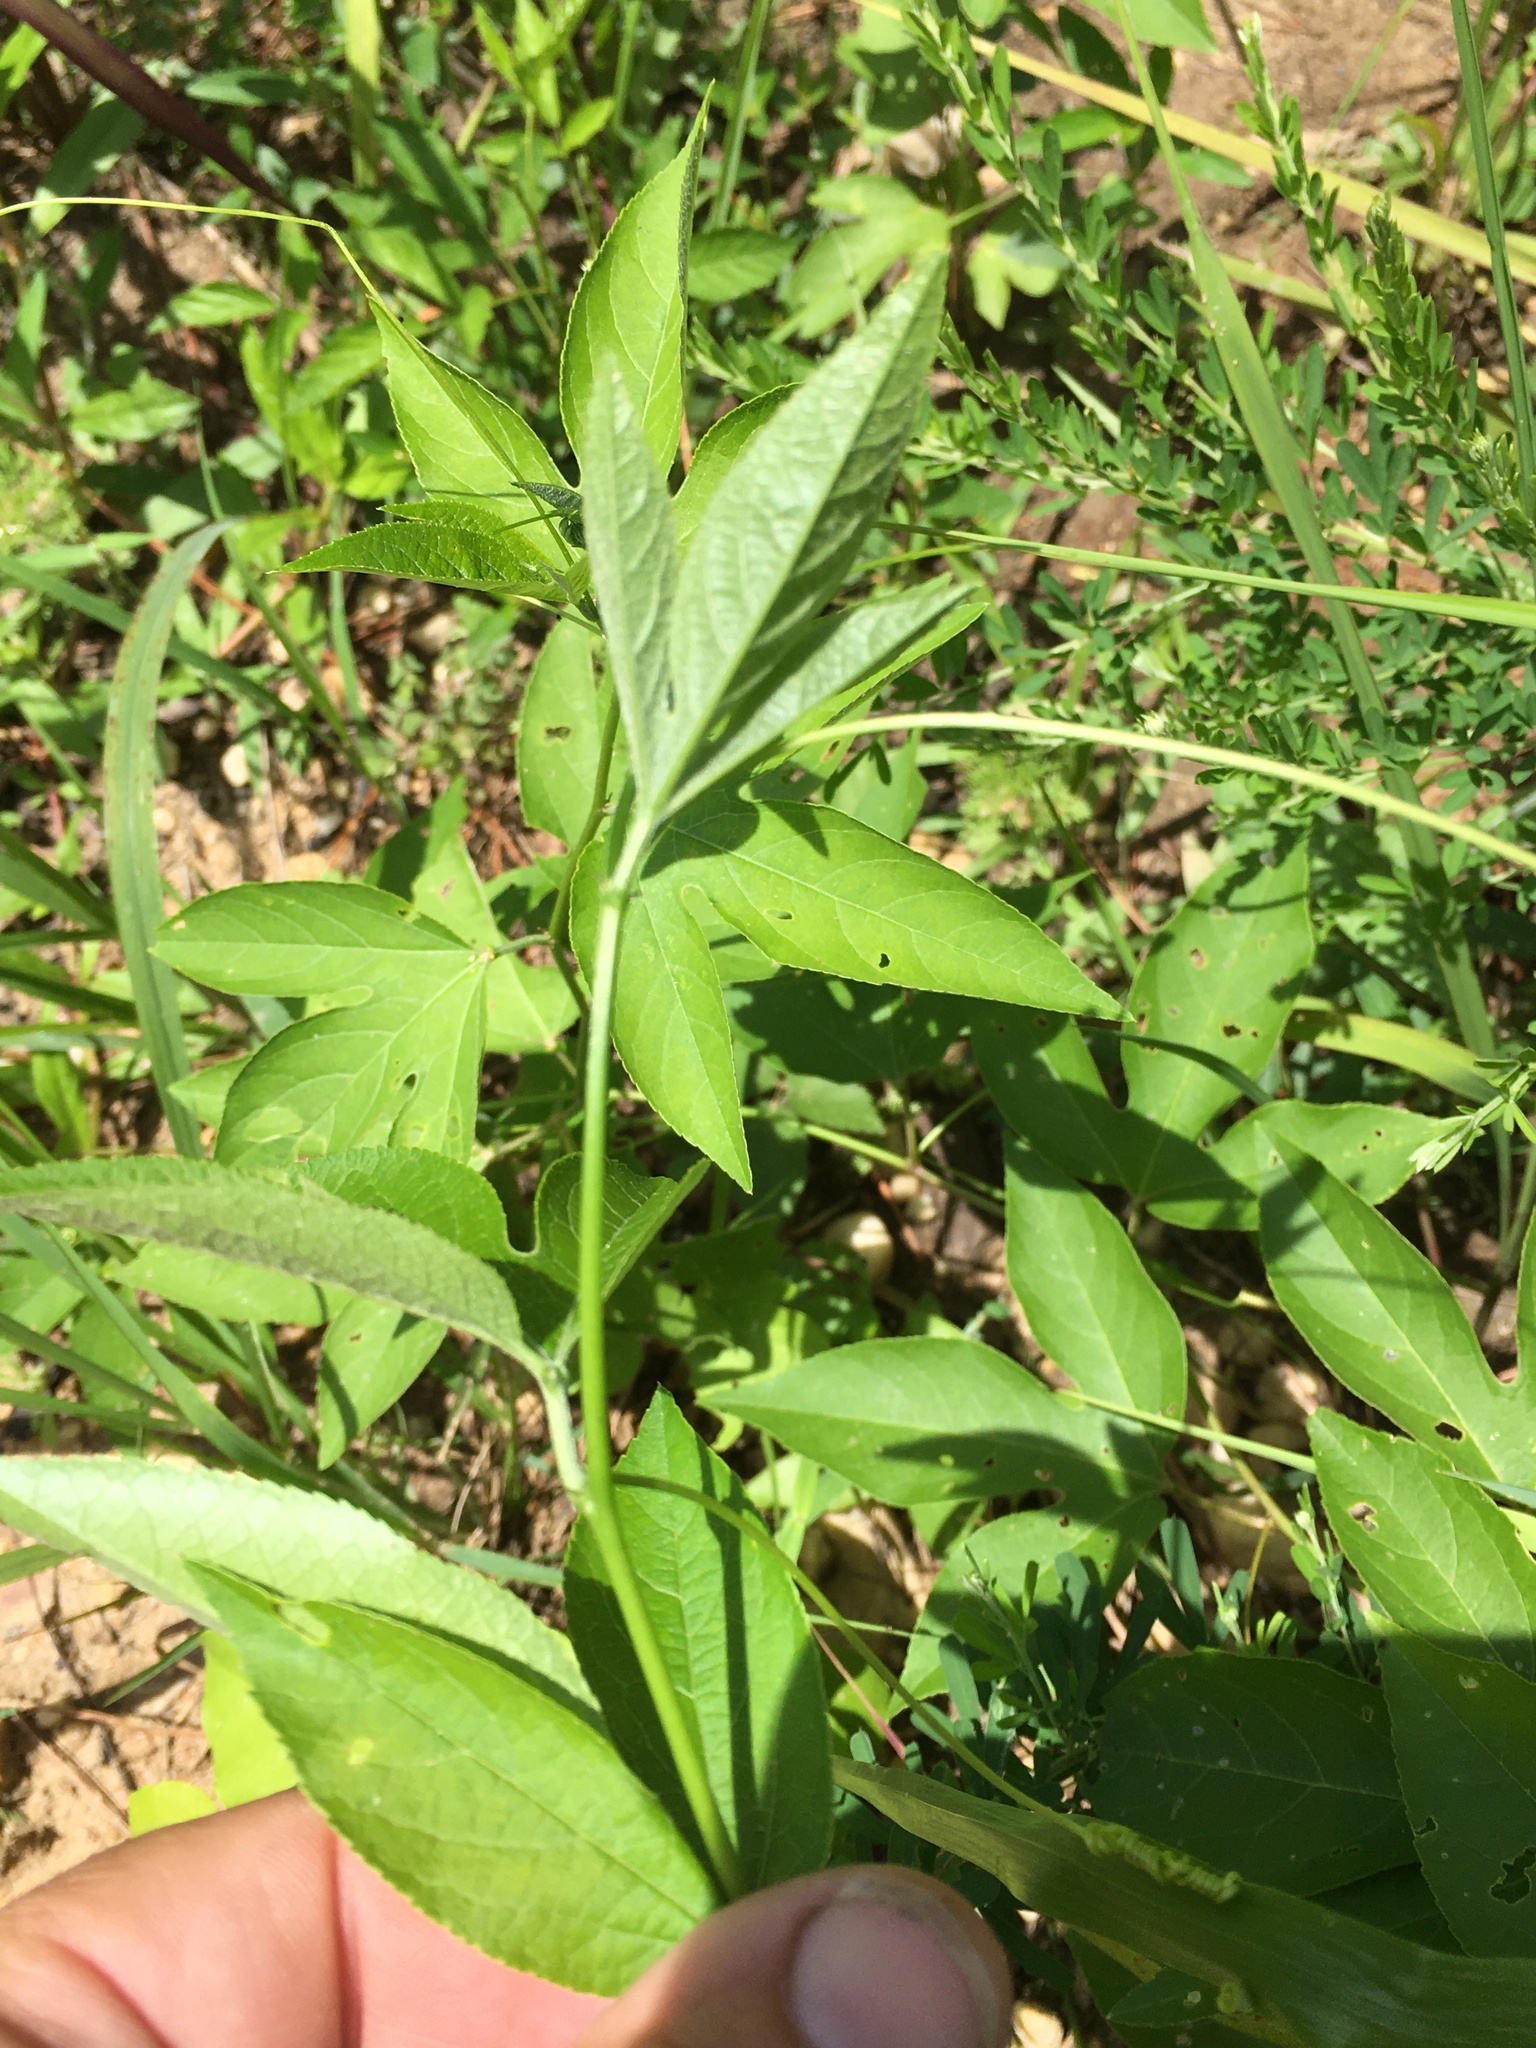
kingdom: Plantae
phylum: Tracheophyta
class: Magnoliopsida
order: Malpighiales
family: Passifloraceae
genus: Passiflora
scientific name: Passiflora incarnata
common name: Apricot-vine
